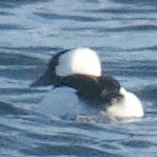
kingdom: Animalia
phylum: Chordata
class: Aves
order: Anseriformes
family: Anatidae
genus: Bucephala
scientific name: Bucephala albeola
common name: Bufflehead
